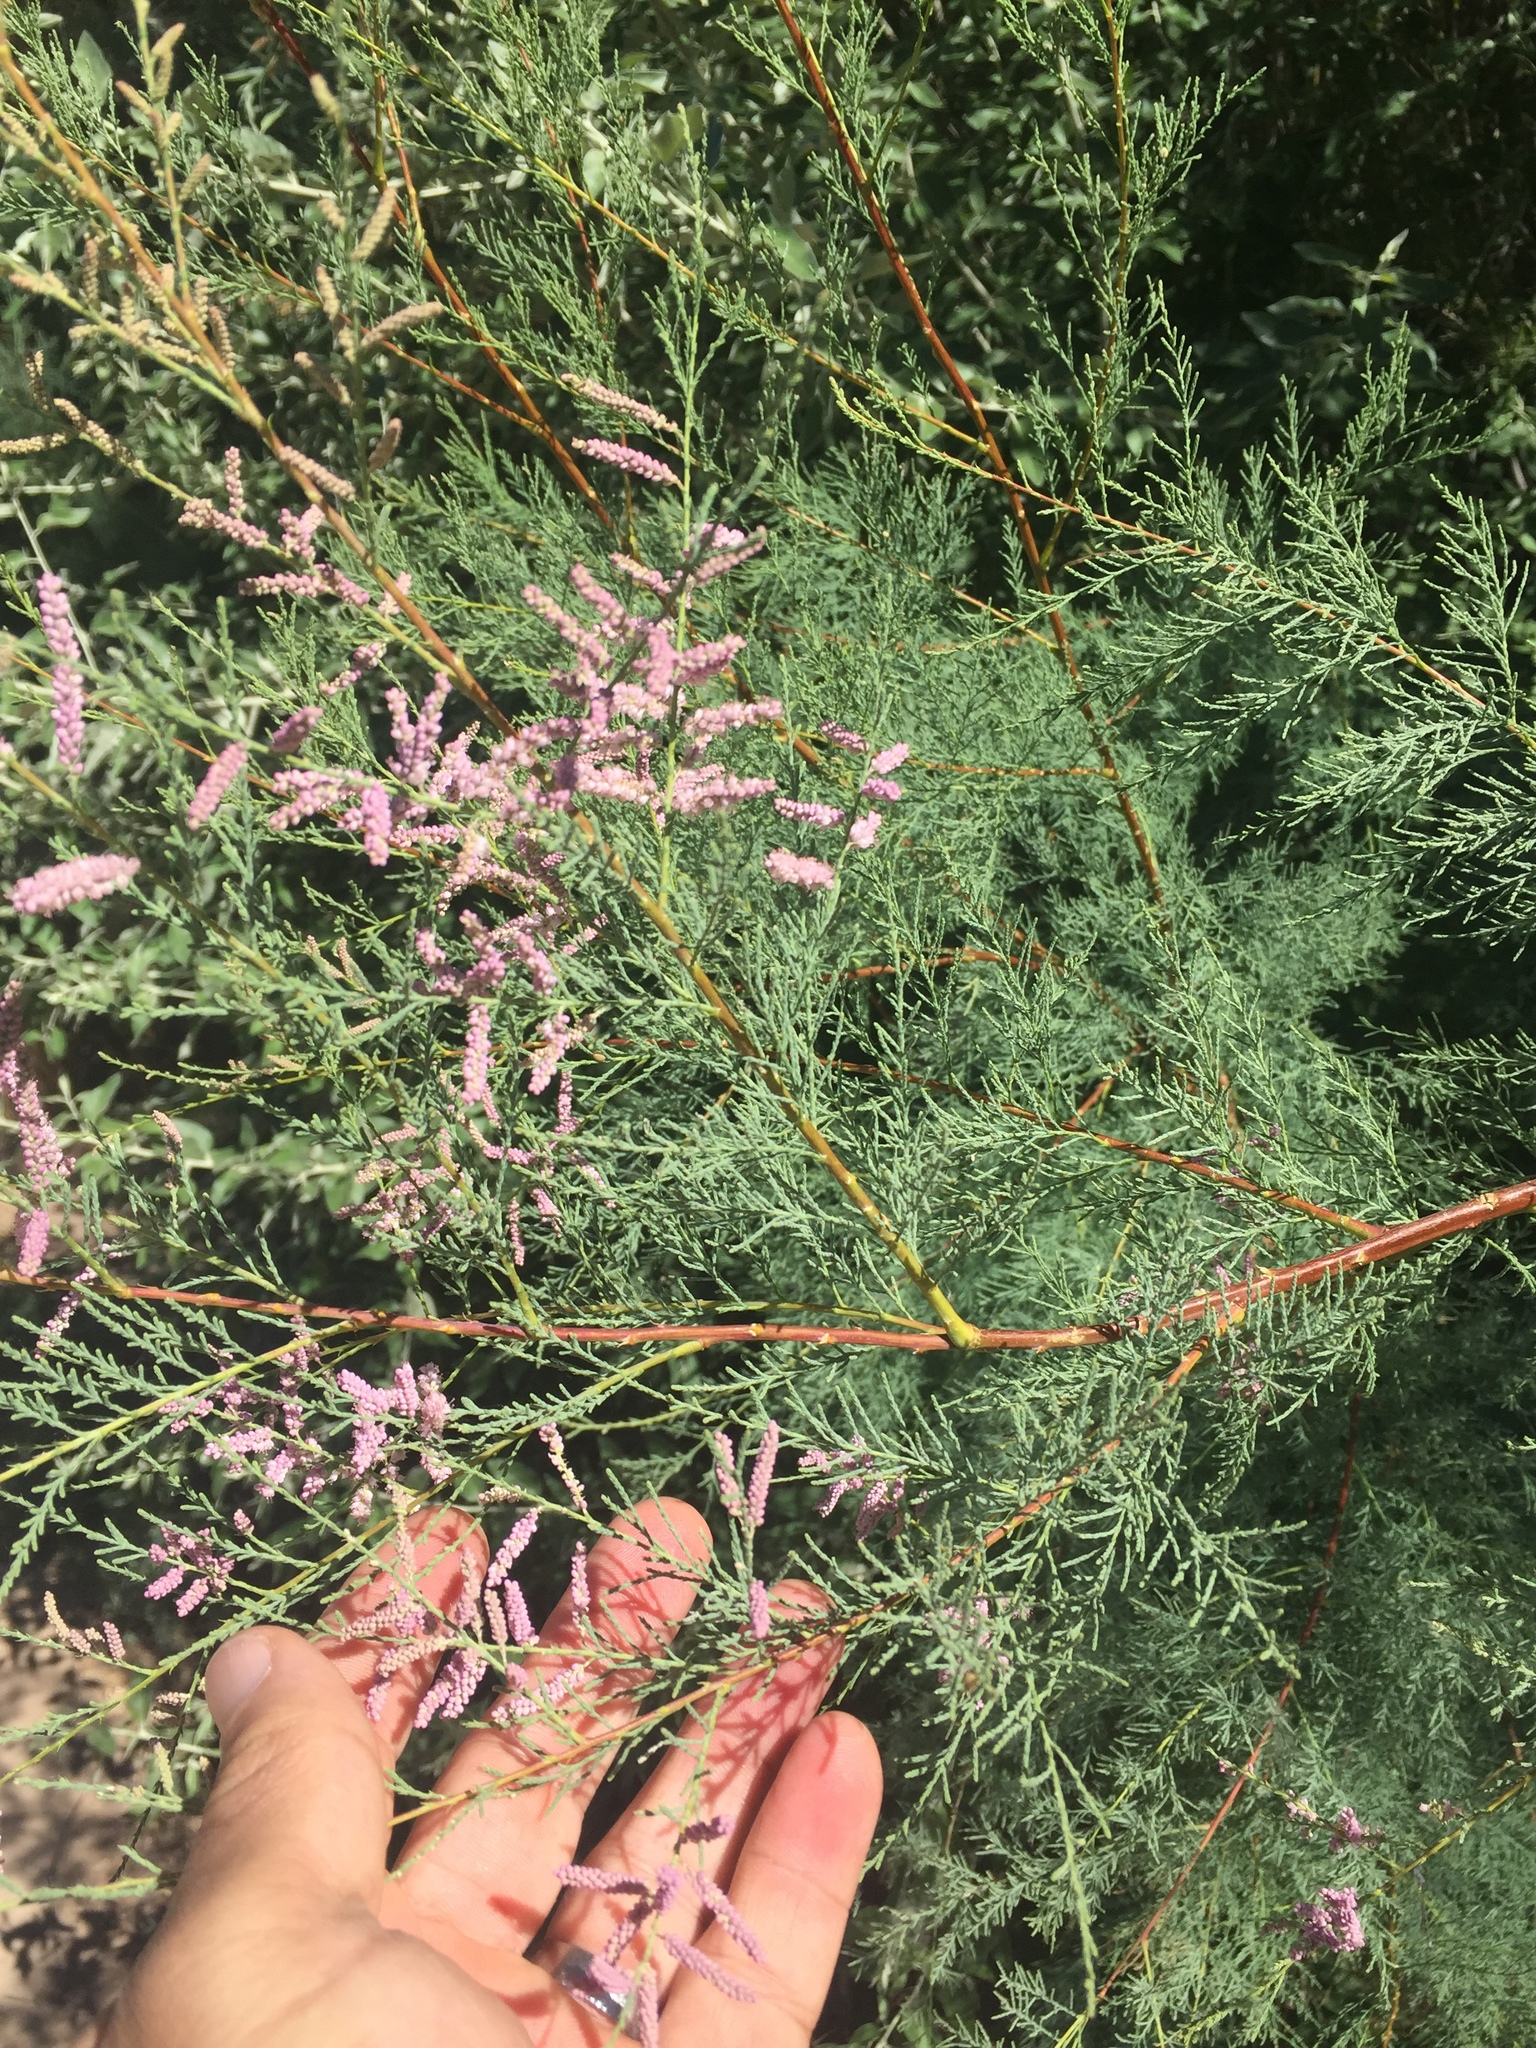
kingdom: Plantae
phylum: Tracheophyta
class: Magnoliopsida
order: Caryophyllales
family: Tamaricaceae
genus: Tamarix
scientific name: Tamarix ramosissima
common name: Pink tamarisk
